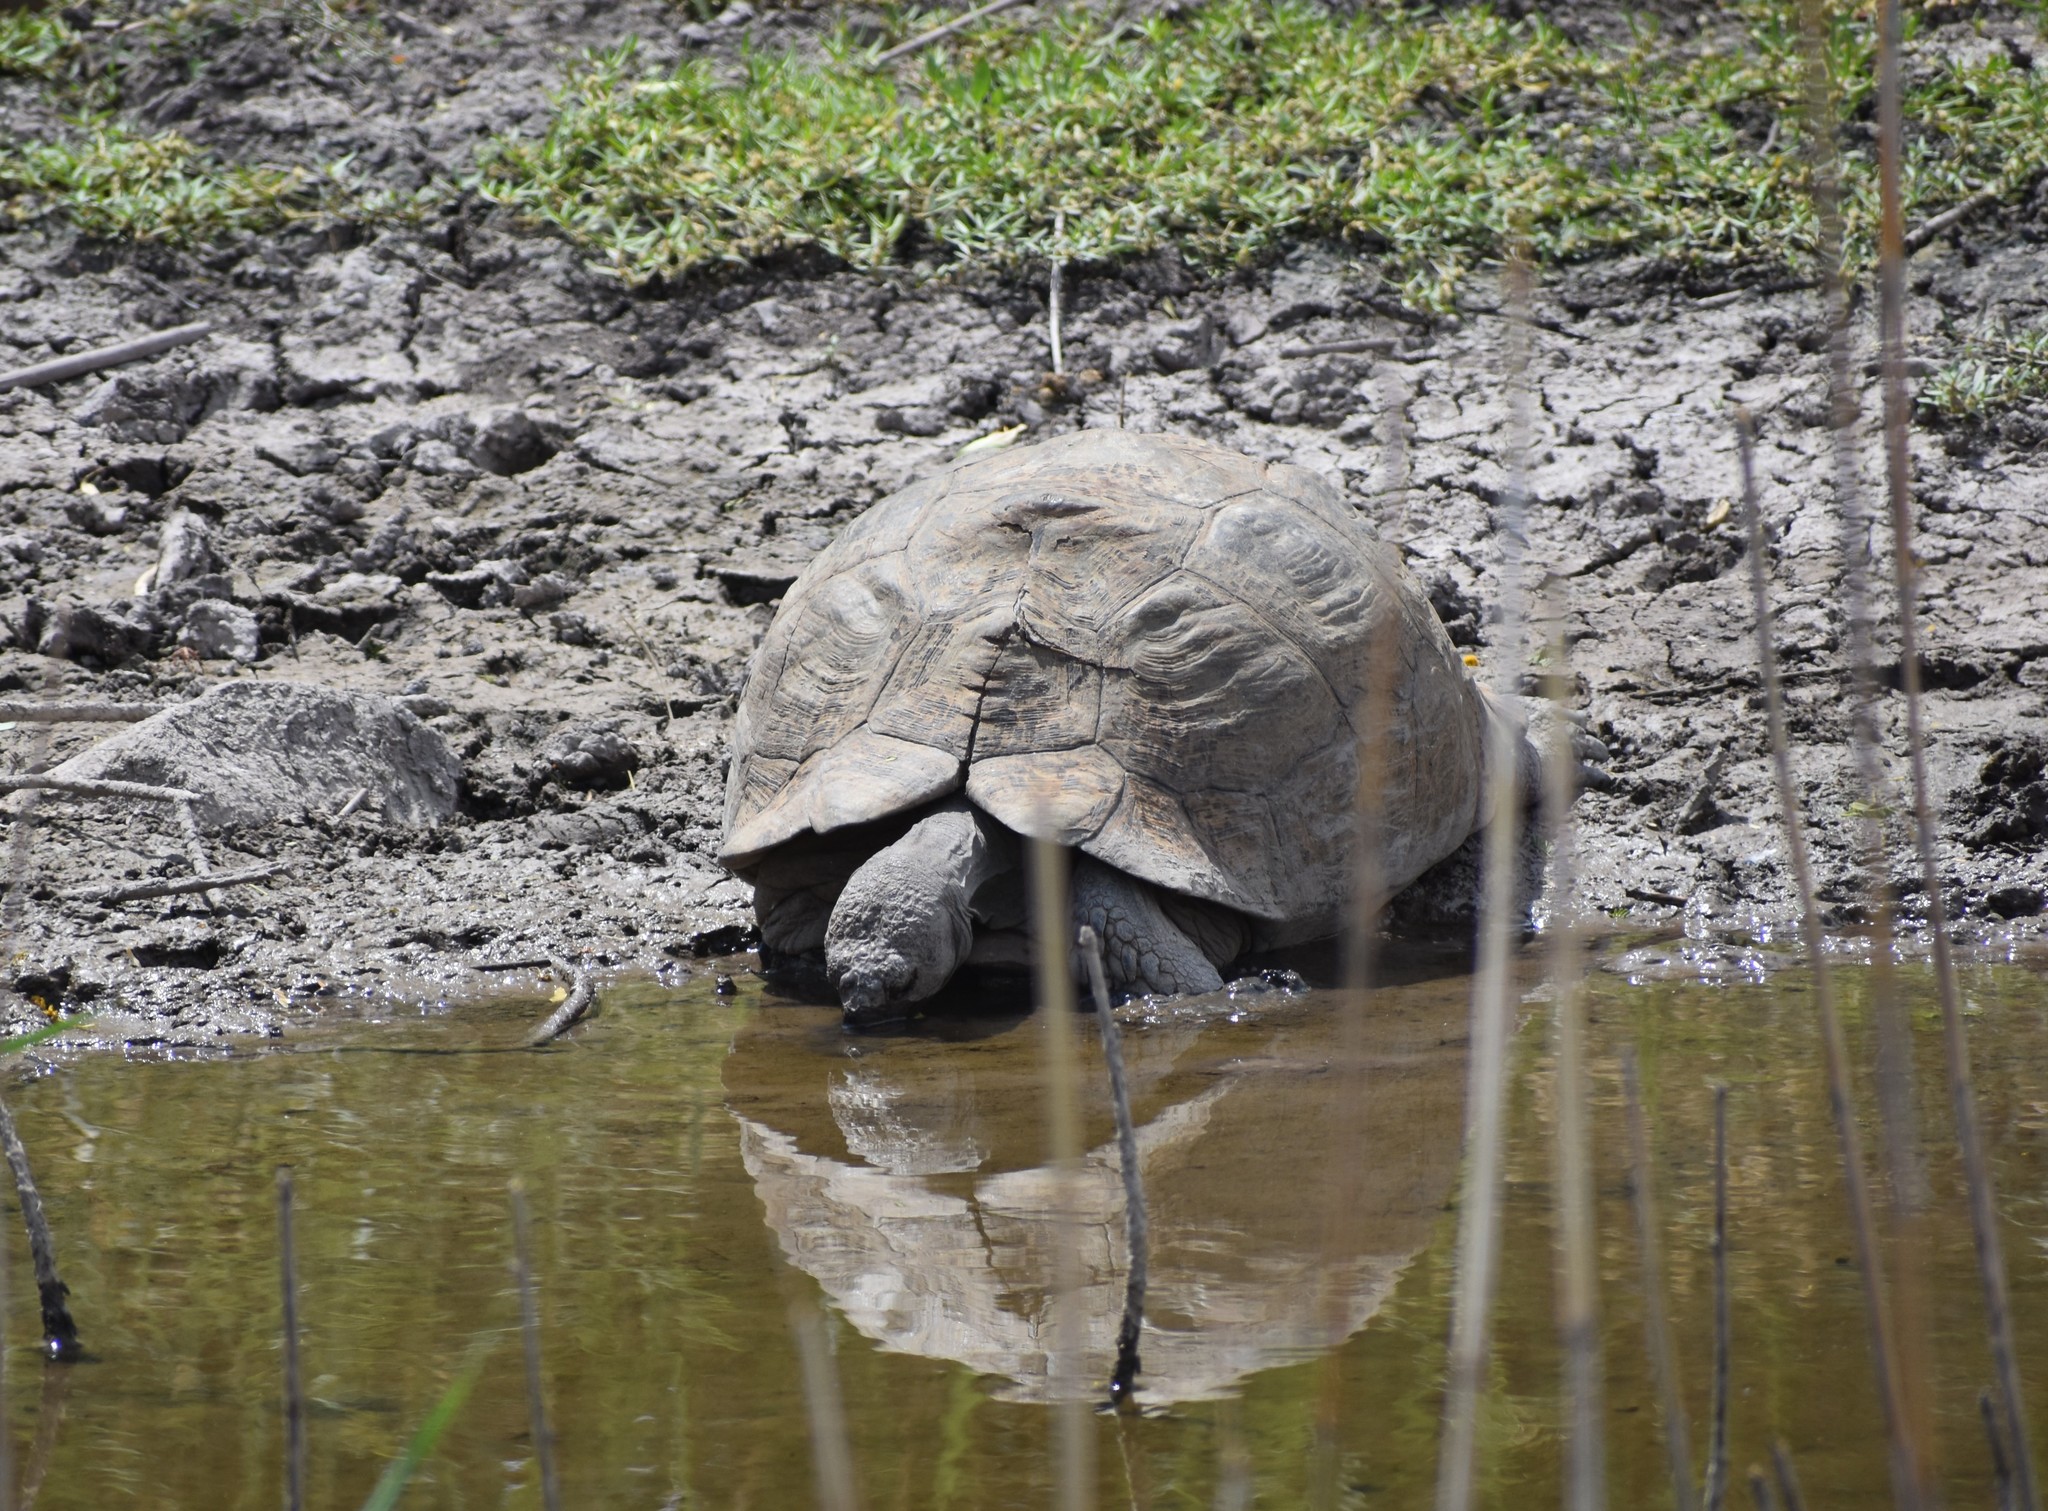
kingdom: Animalia
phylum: Chordata
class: Testudines
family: Testudinidae
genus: Stigmochelys
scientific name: Stigmochelys pardalis
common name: Leopard tortoise
